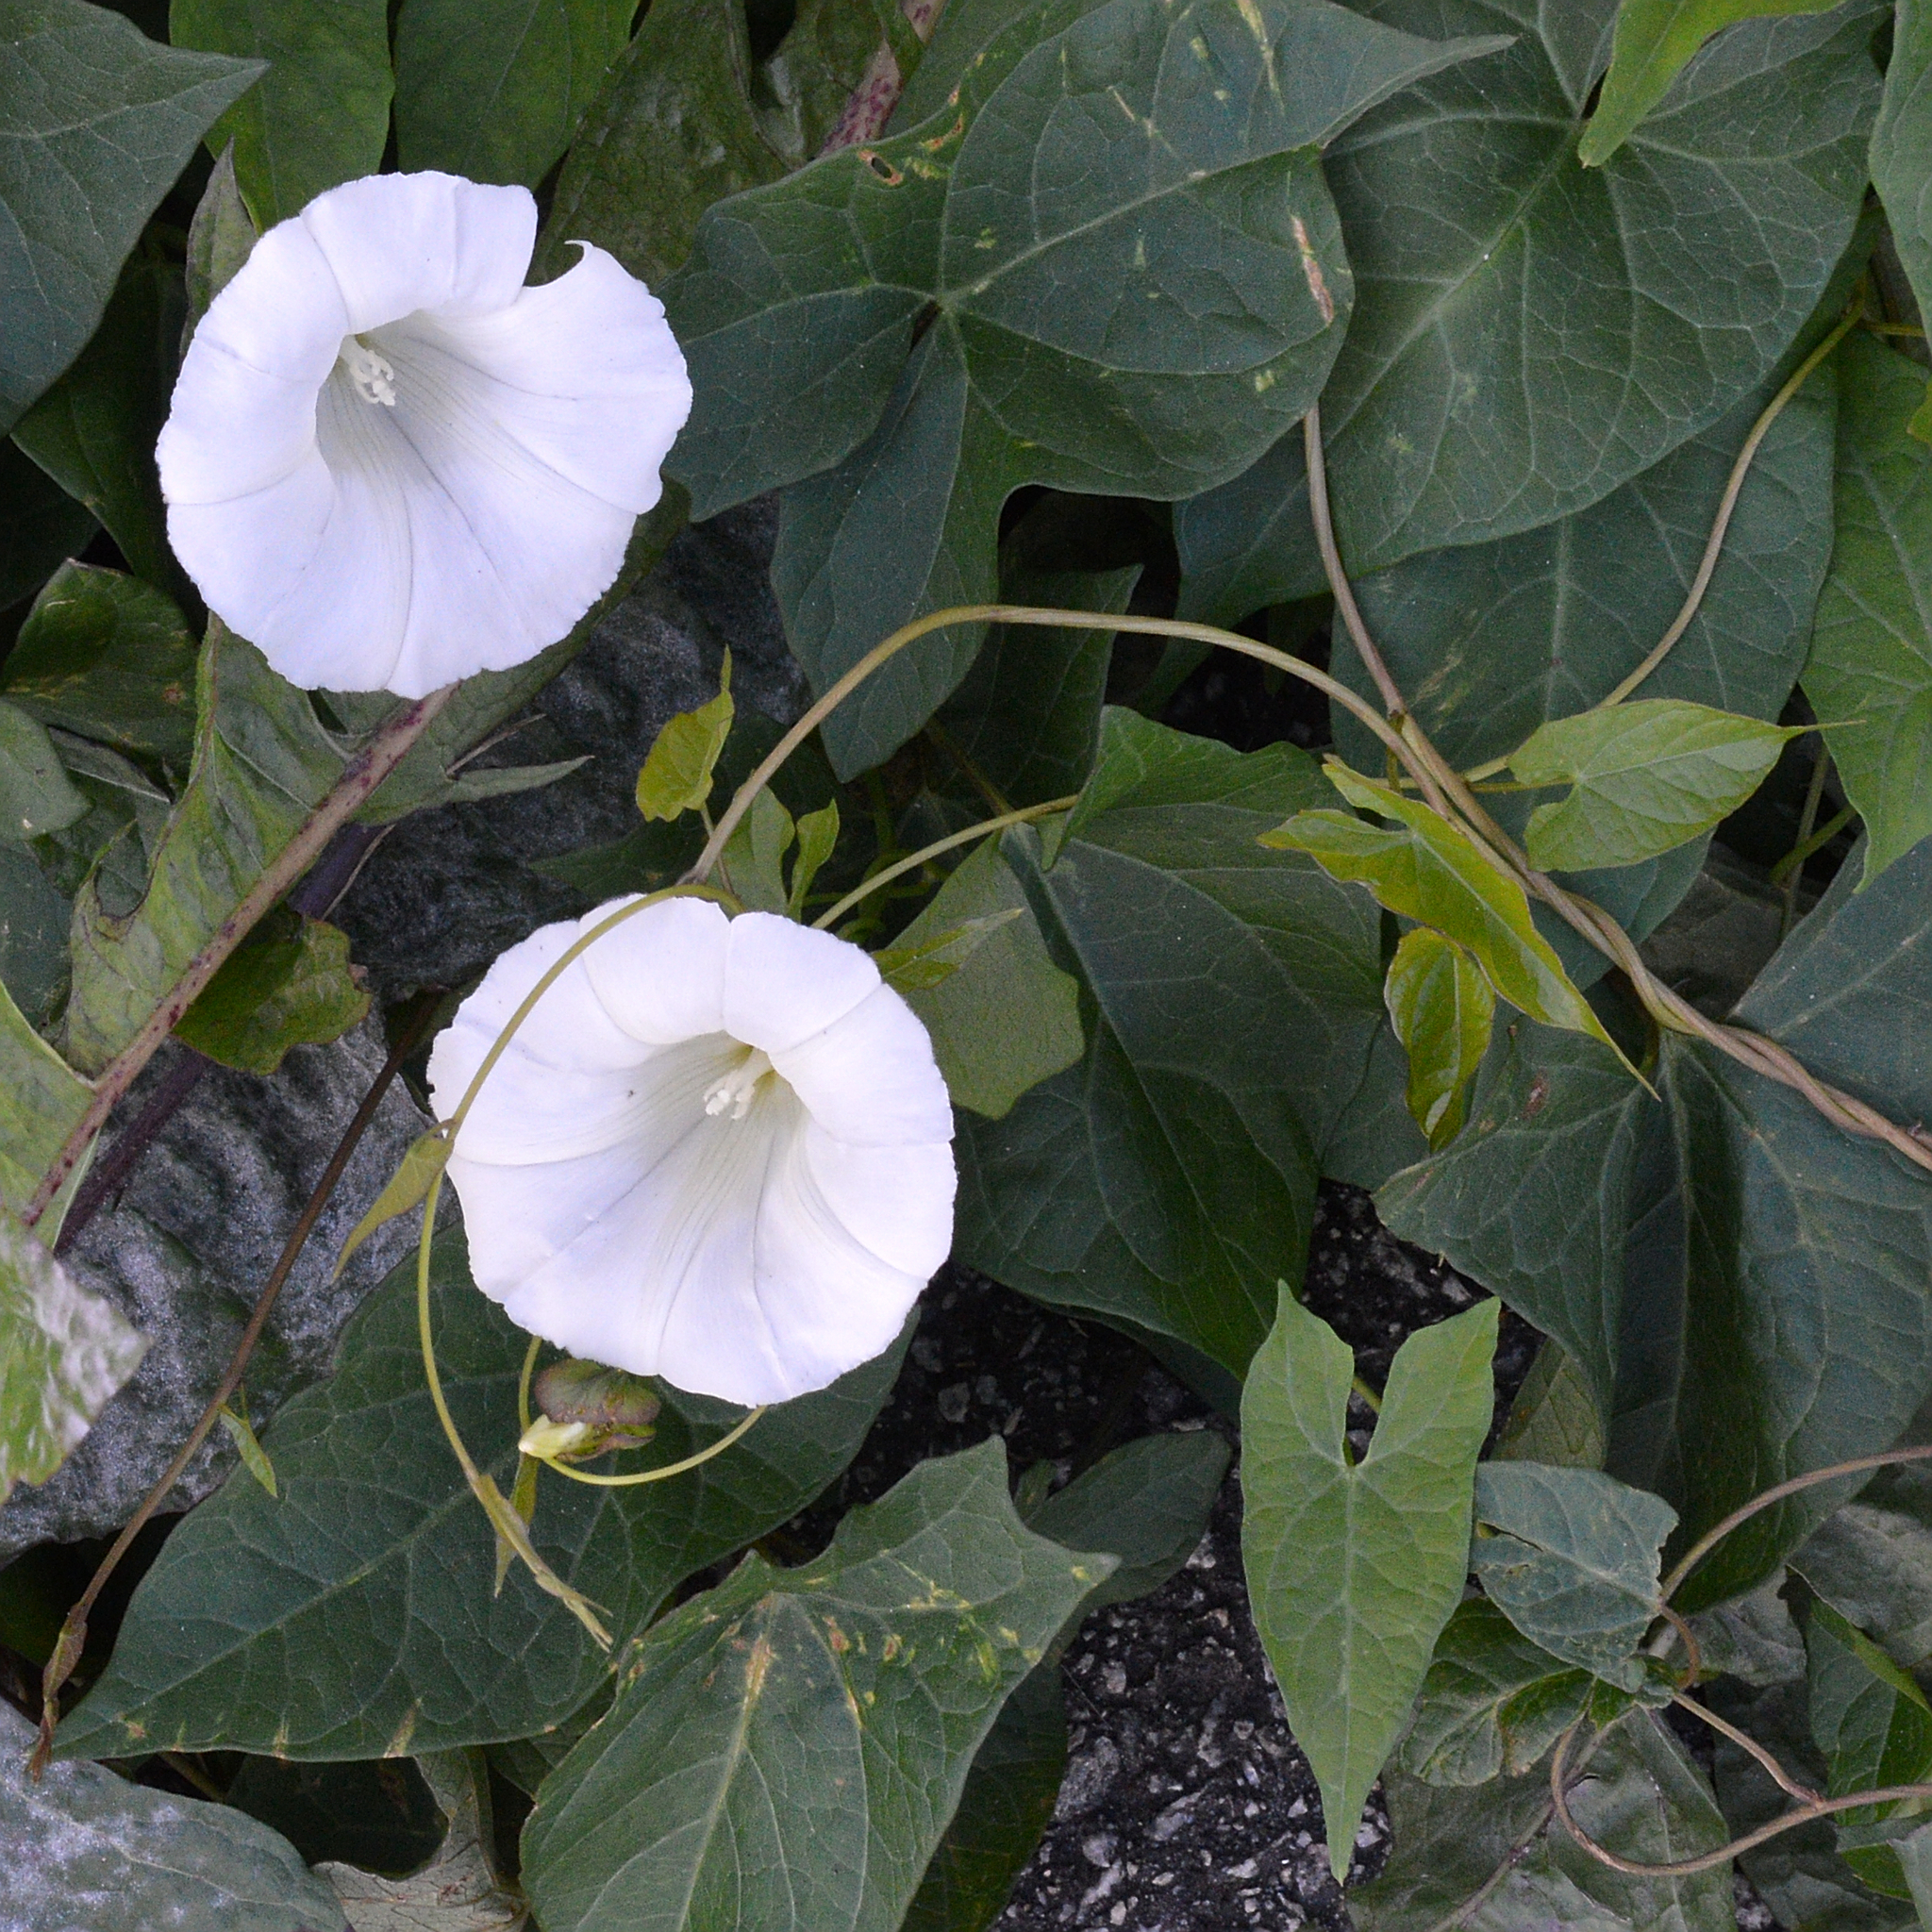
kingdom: Plantae
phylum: Tracheophyta
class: Magnoliopsida
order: Solanales
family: Convolvulaceae
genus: Calystegia
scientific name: Calystegia sepium
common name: Hedge bindweed
